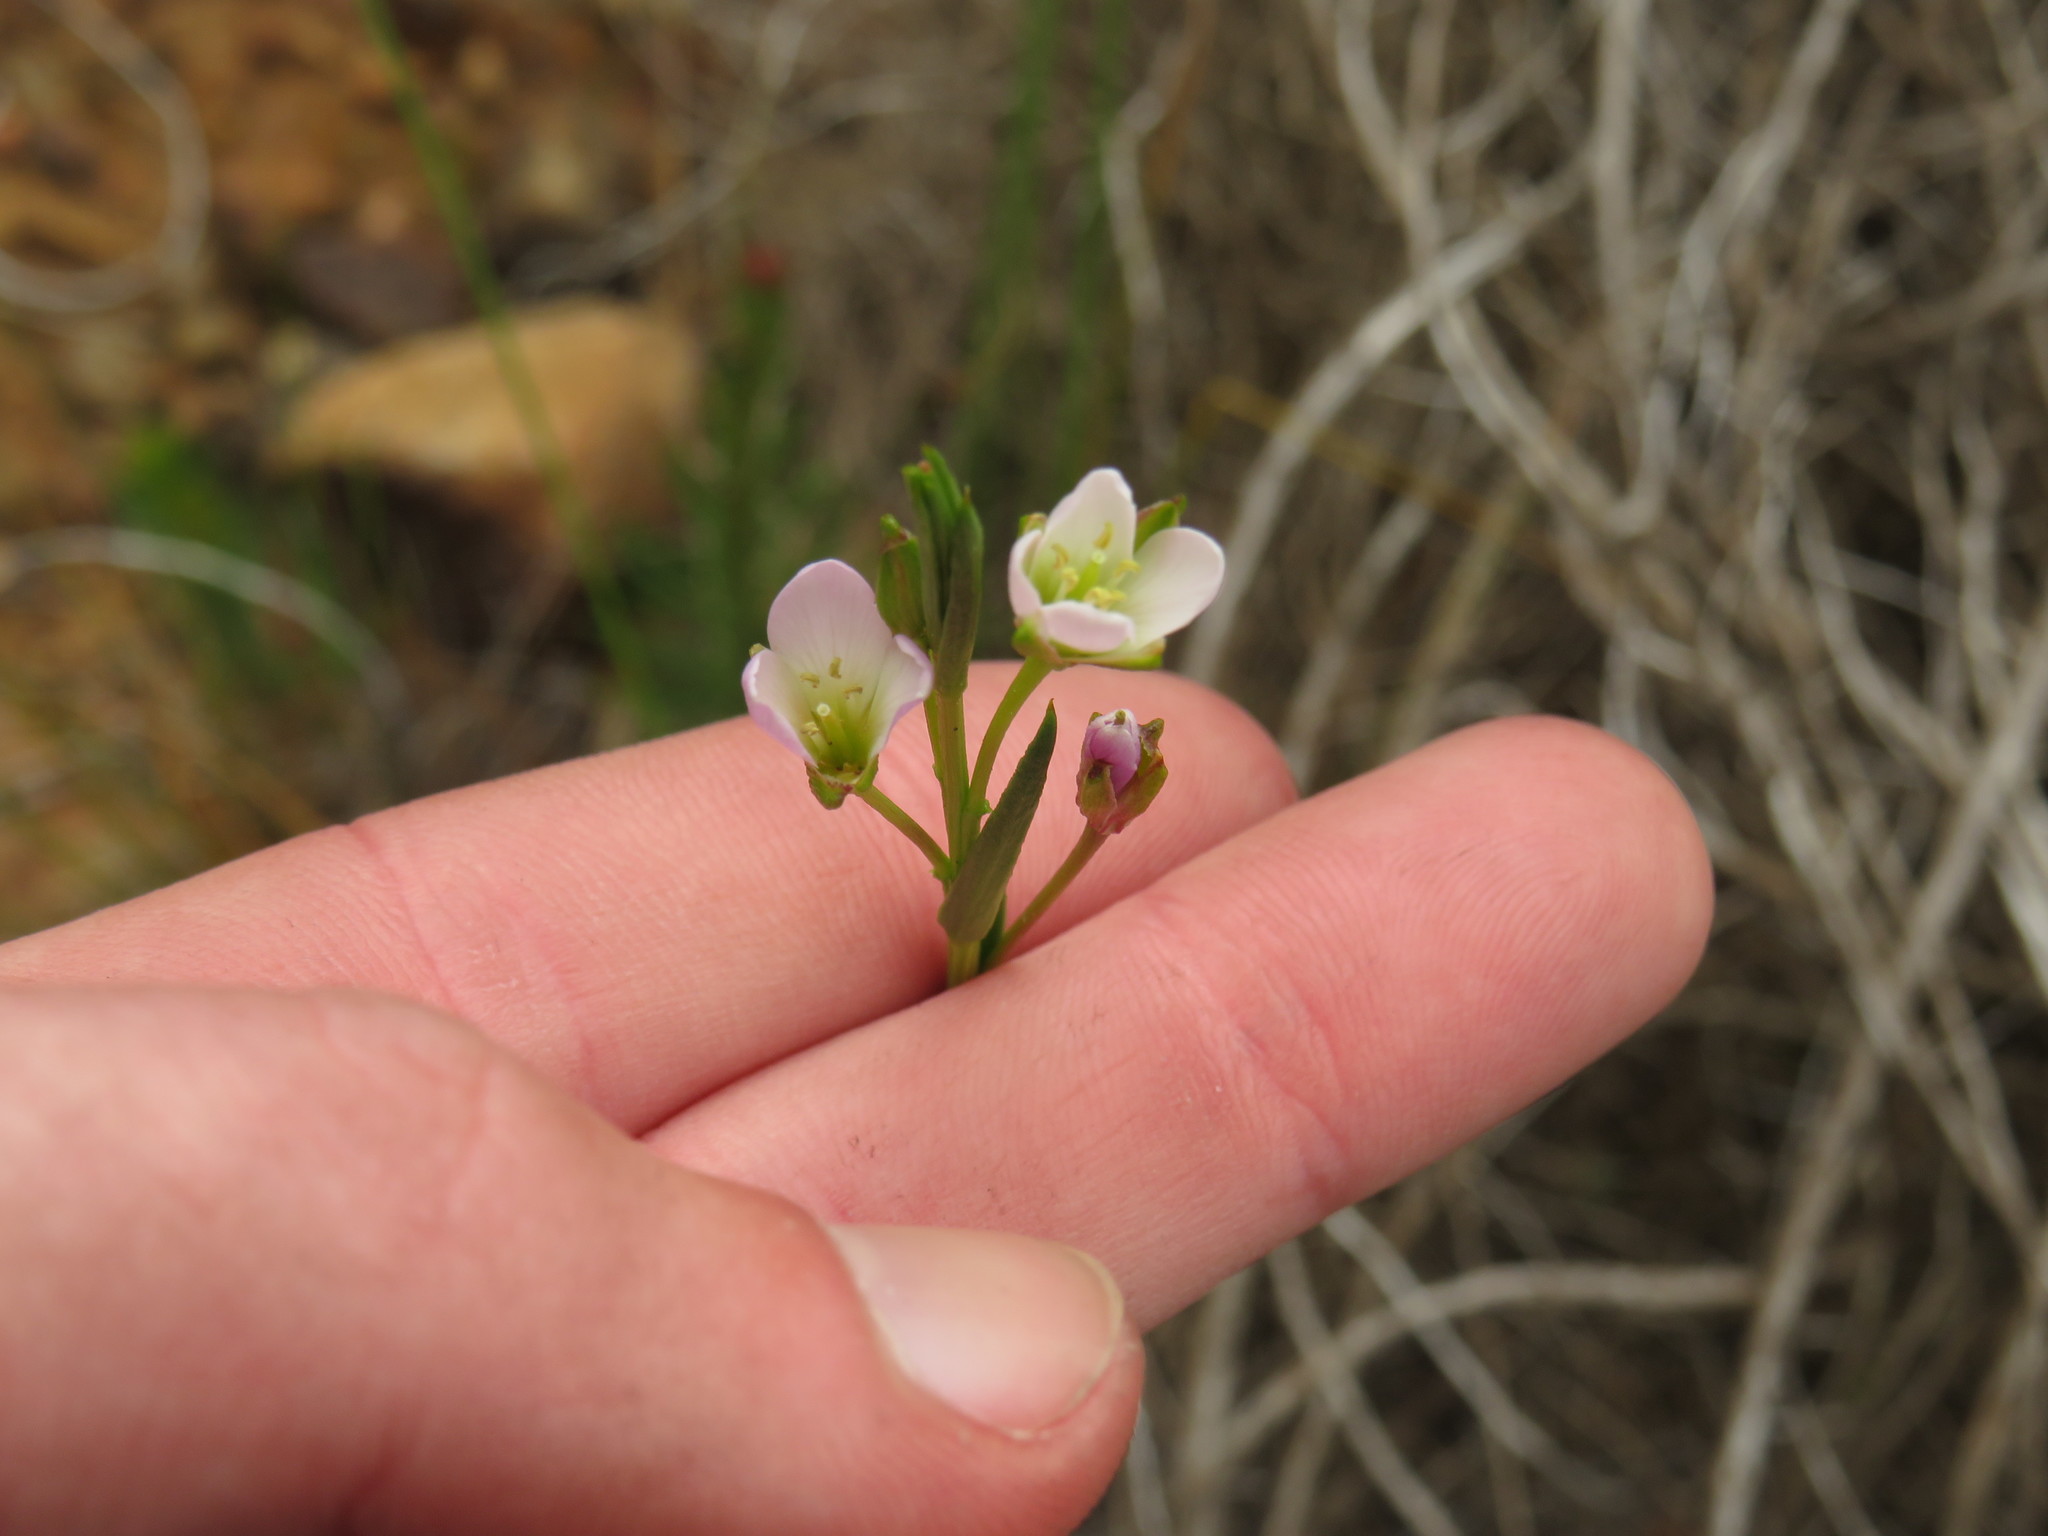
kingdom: Plantae
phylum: Tracheophyta
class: Magnoliopsida
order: Brassicales
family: Brassicaceae
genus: Heliophila
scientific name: Heliophila scoparia
